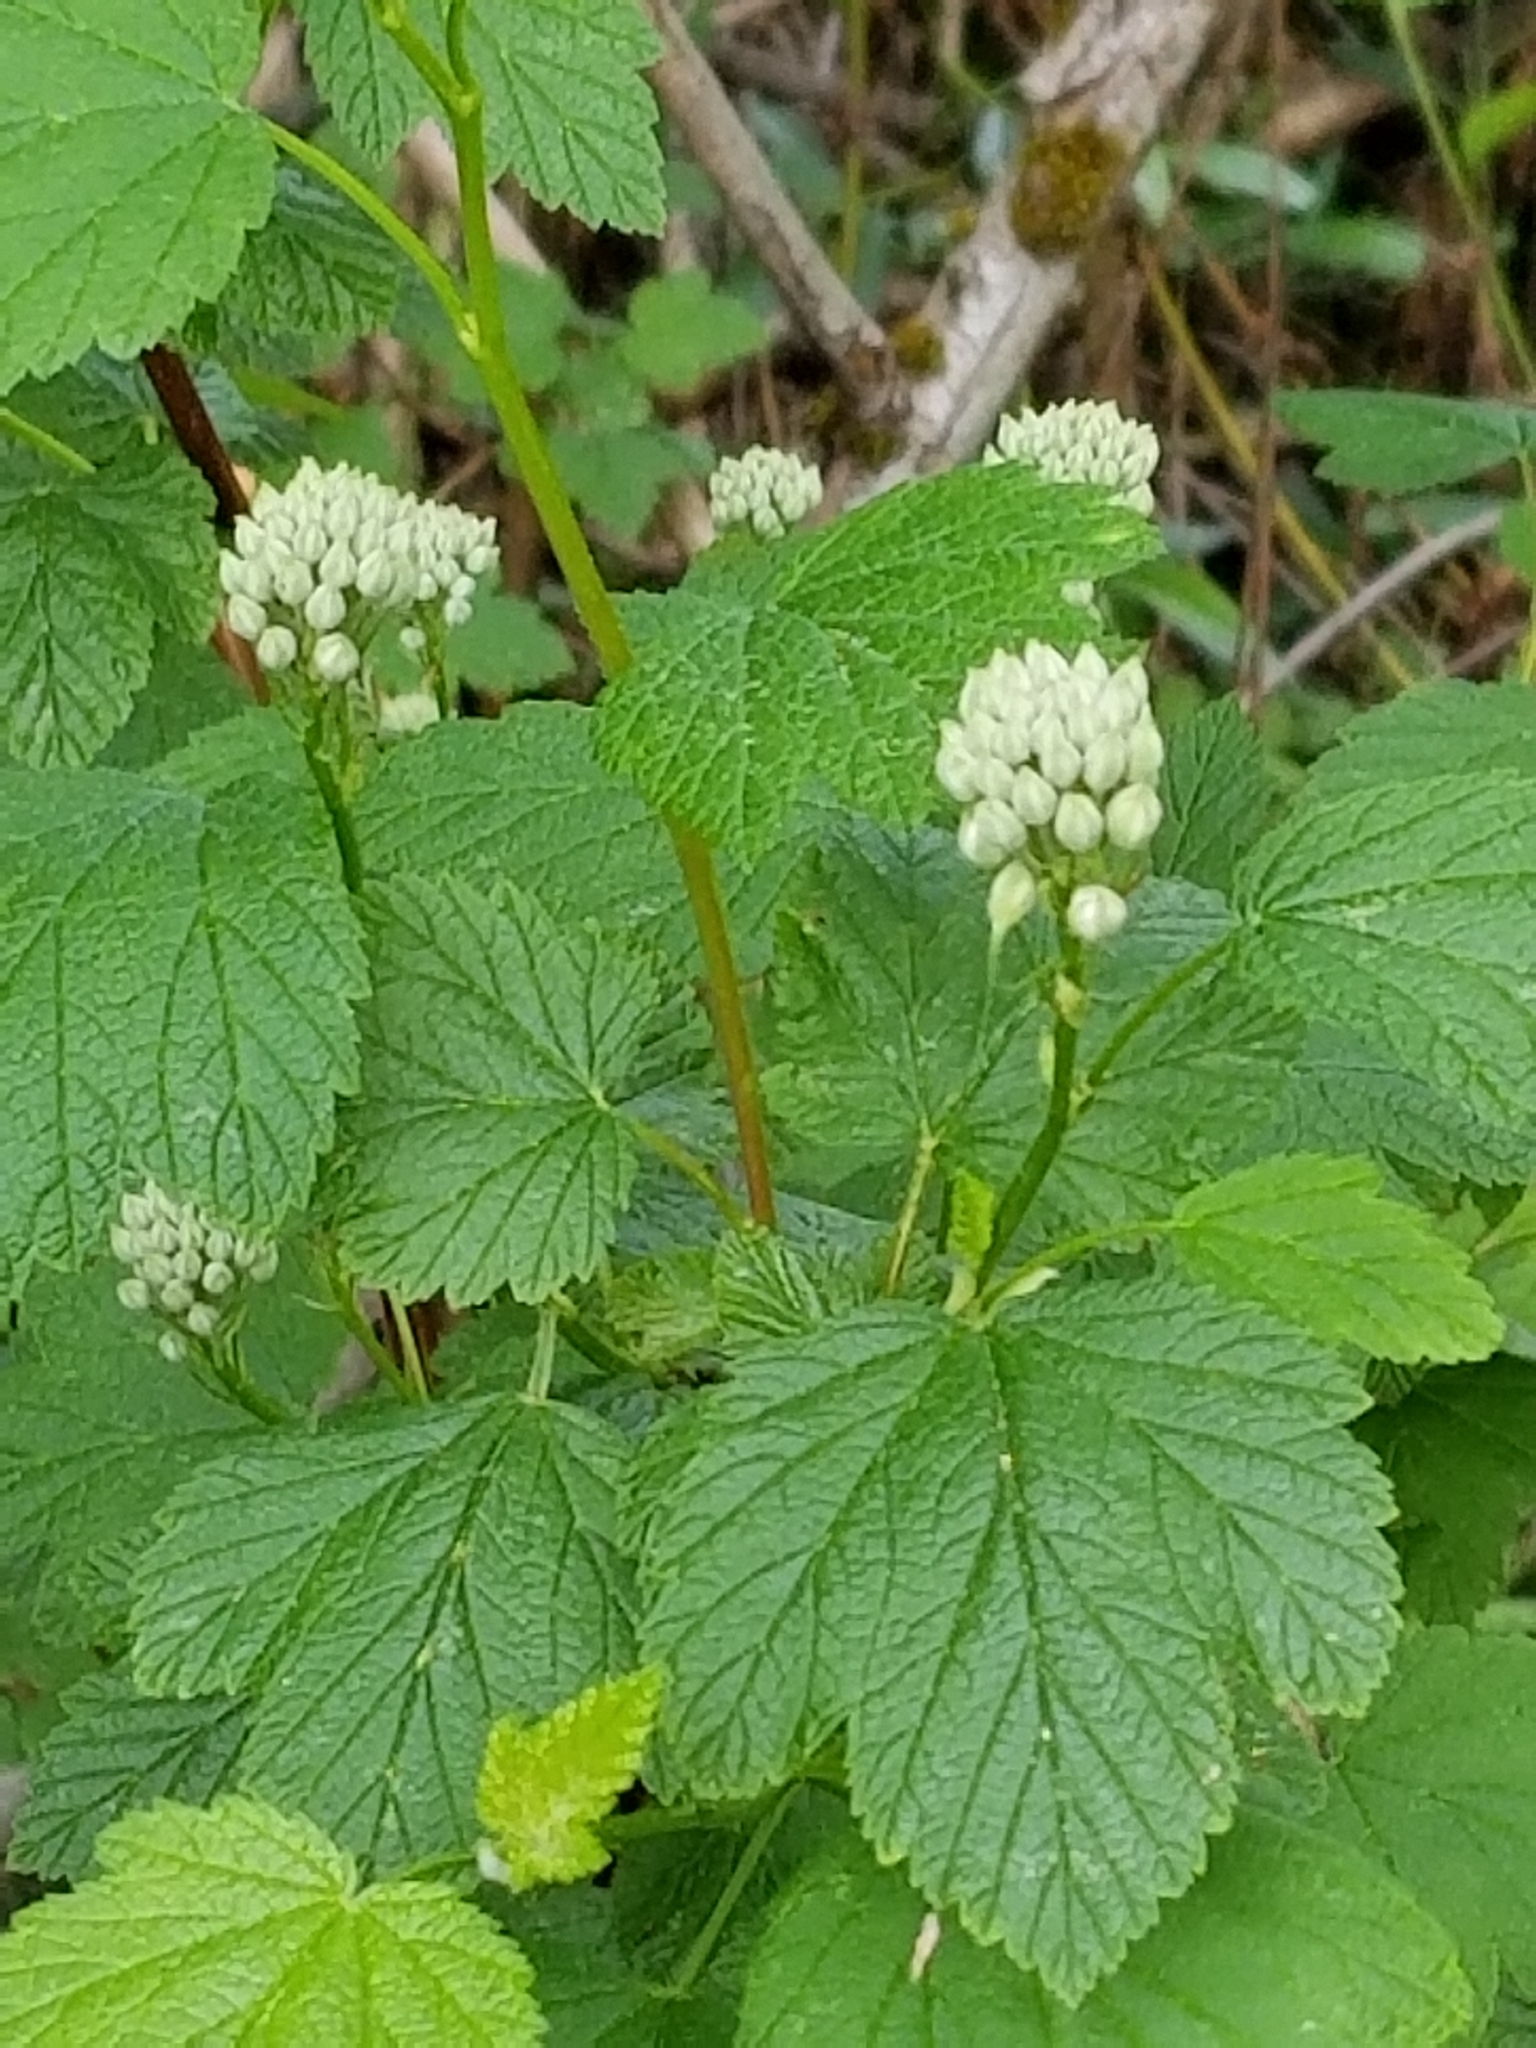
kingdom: Plantae
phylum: Tracheophyta
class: Magnoliopsida
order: Rosales
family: Rosaceae
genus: Physocarpus
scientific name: Physocarpus capitatus
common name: Pacific ninebark
